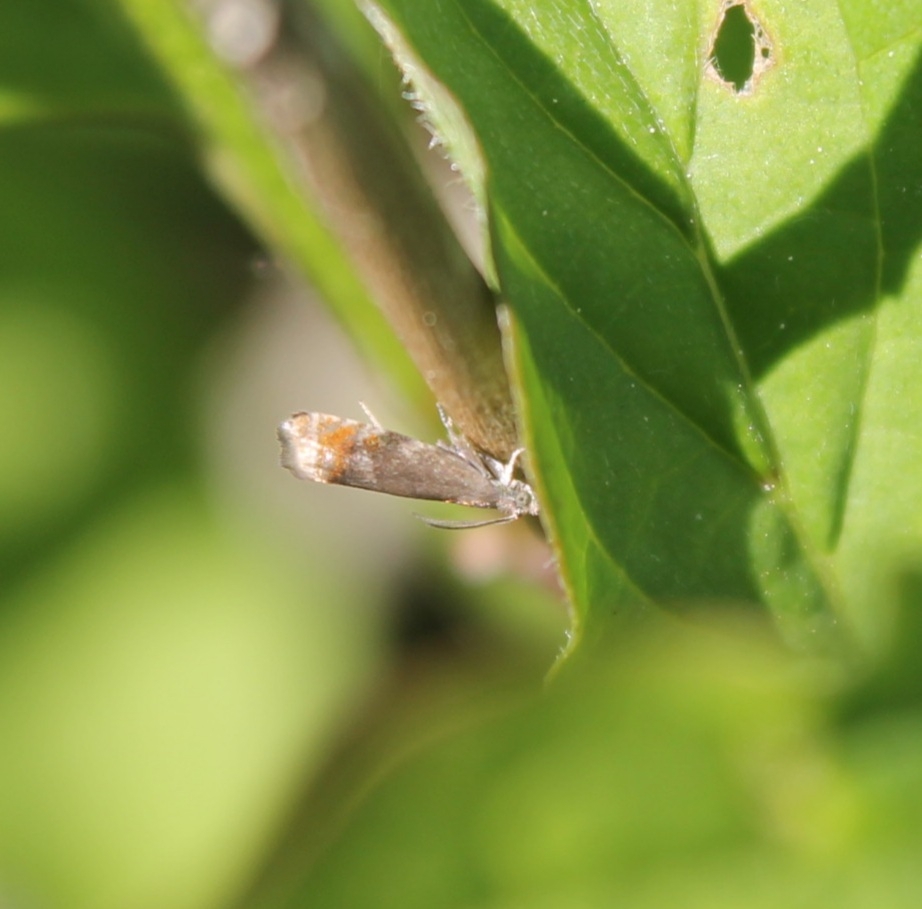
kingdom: Animalia
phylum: Arthropoda
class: Insecta
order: Lepidoptera
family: Tortricidae
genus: Pammene
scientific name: Pammene rhediella
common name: Fruitlet-mining tortrix
